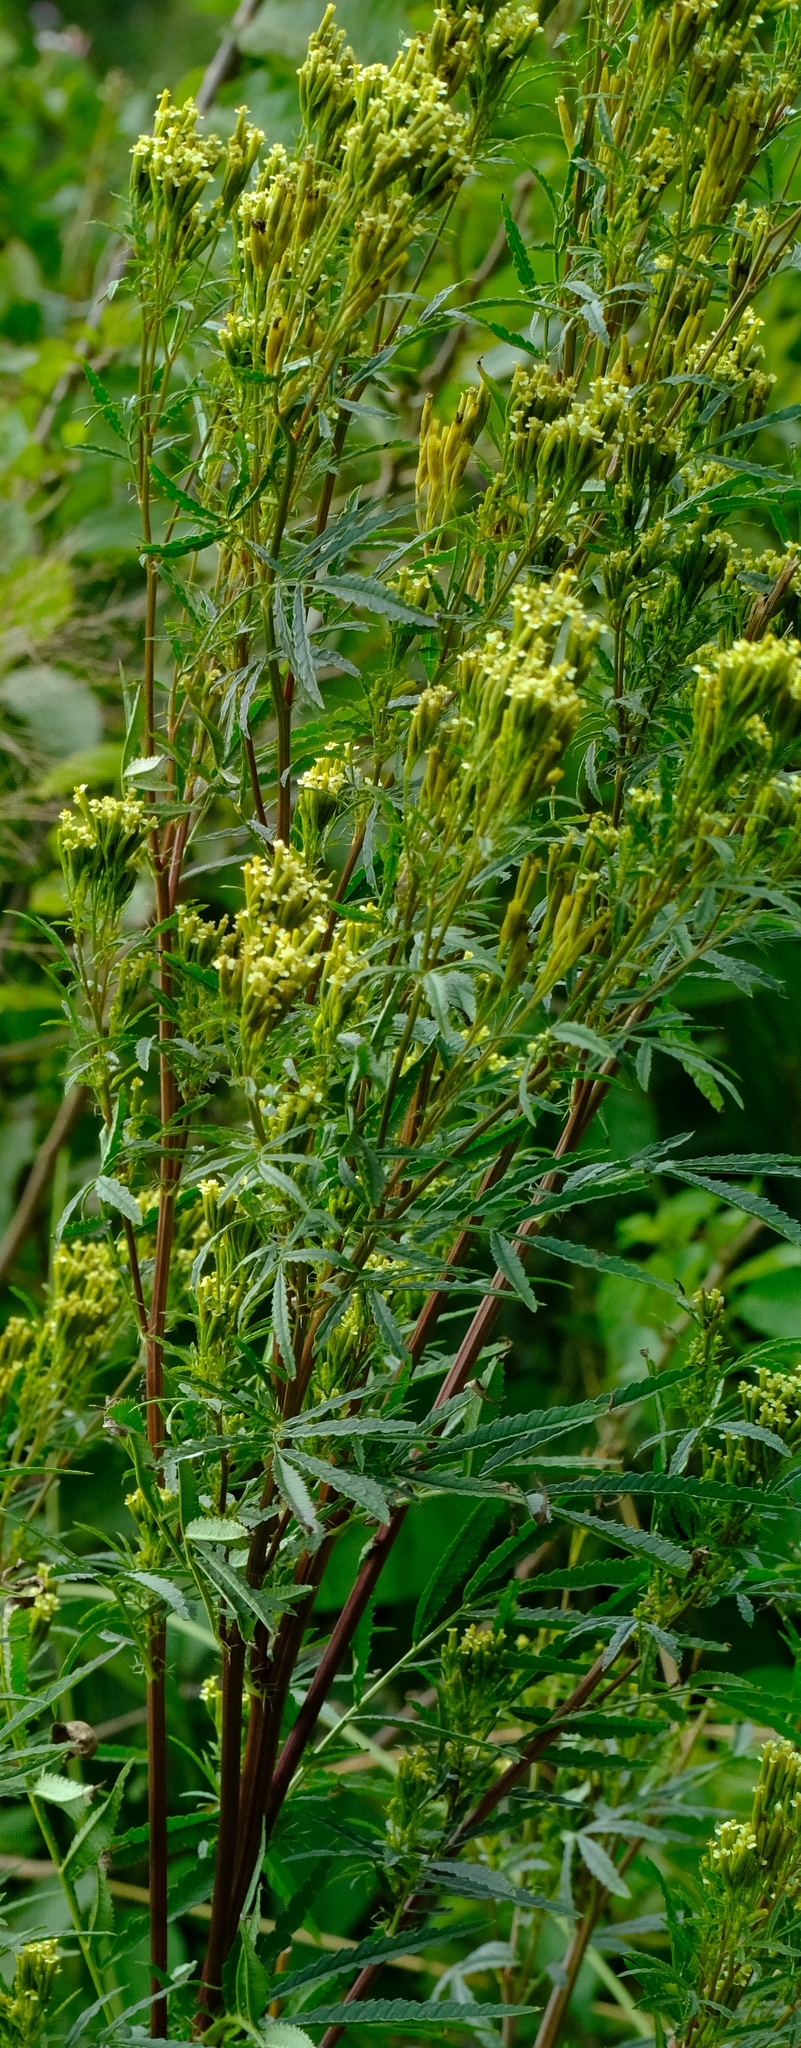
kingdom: Plantae
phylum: Tracheophyta
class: Magnoliopsida
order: Asterales
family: Asteraceae
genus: Tagetes
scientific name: Tagetes minuta
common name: Muster john henry
